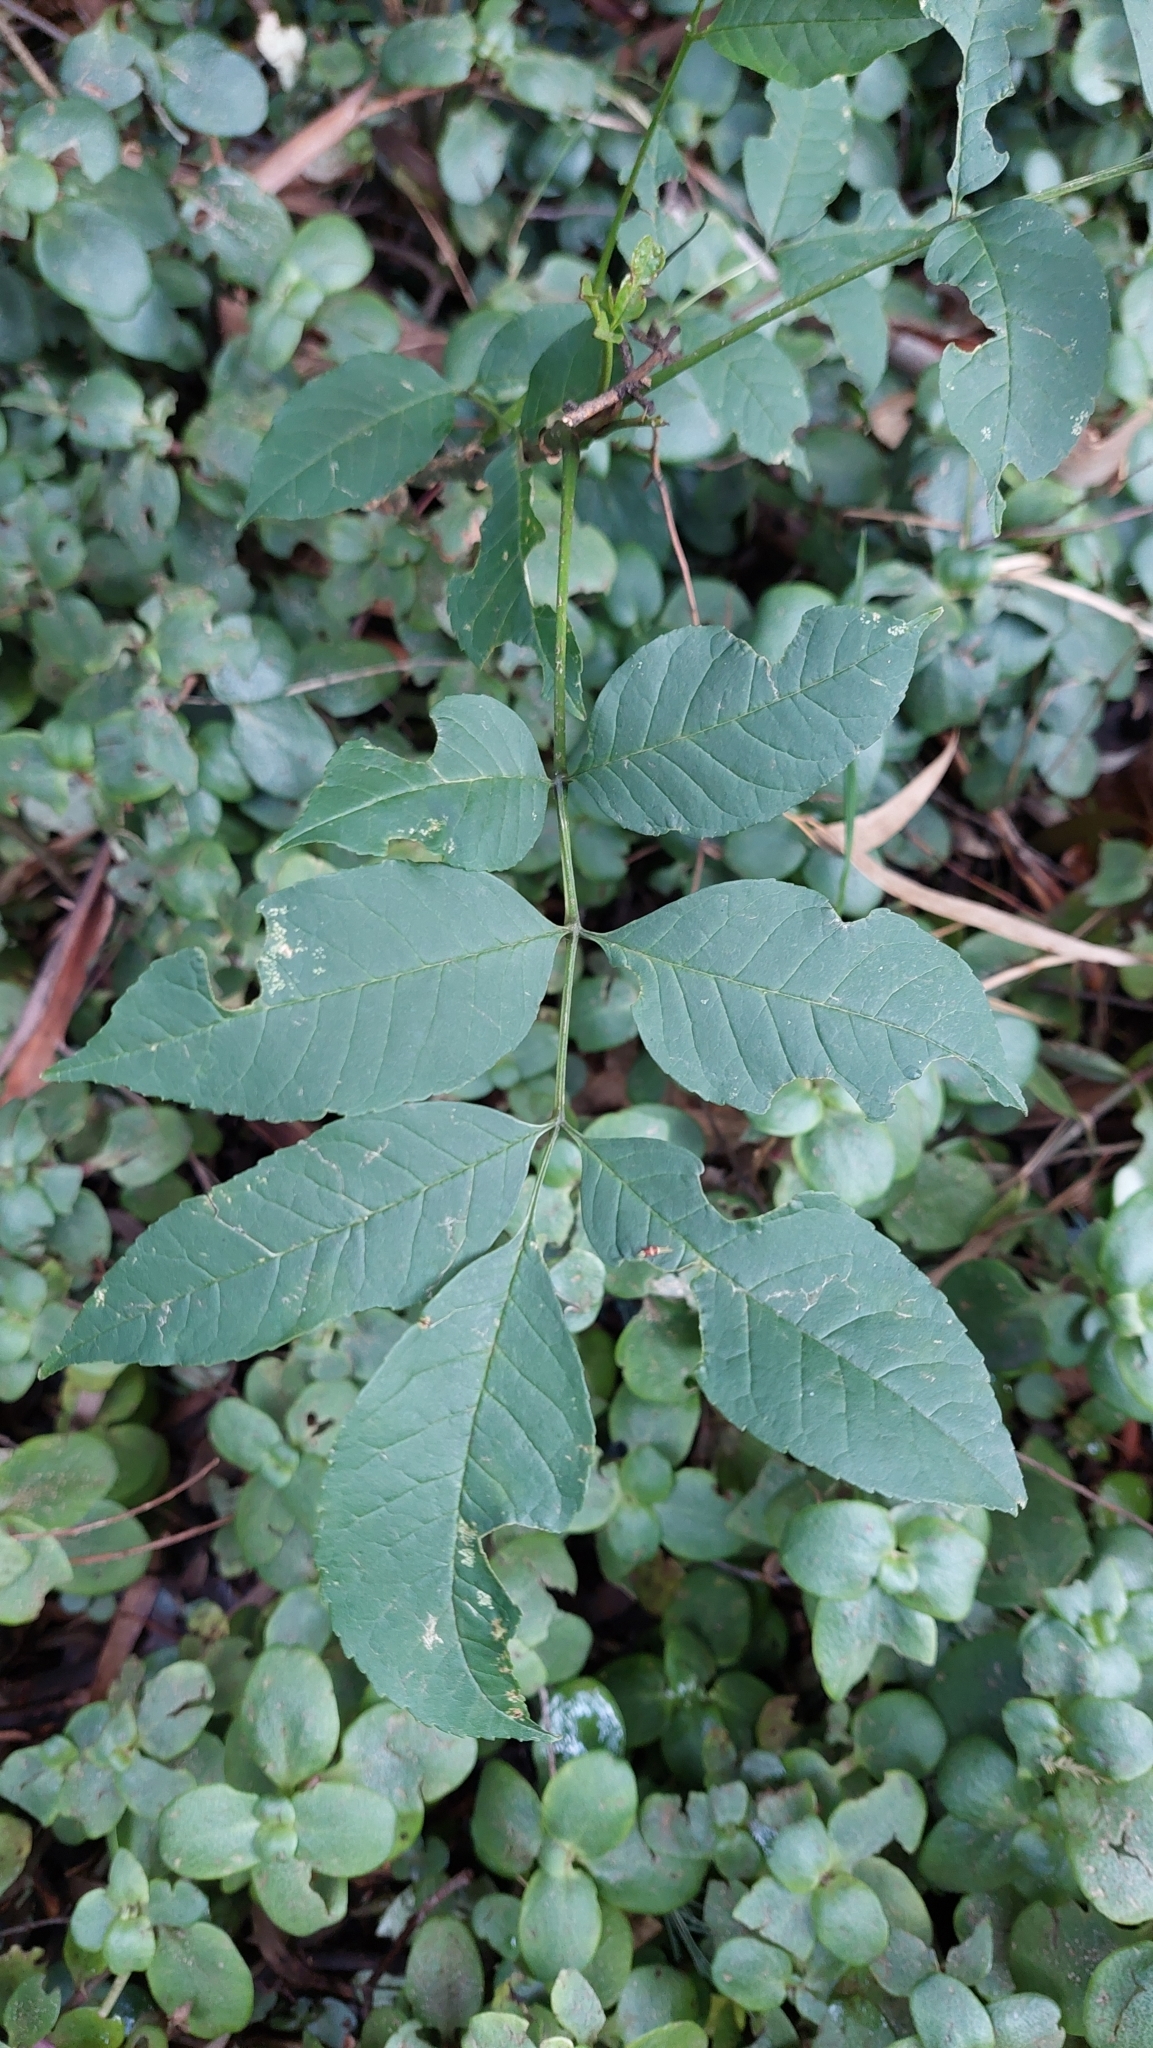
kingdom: Plantae
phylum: Tracheophyta
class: Magnoliopsida
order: Lamiales
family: Oleaceae
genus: Fraxinus
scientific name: Fraxinus uhdei
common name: Shamel ash
